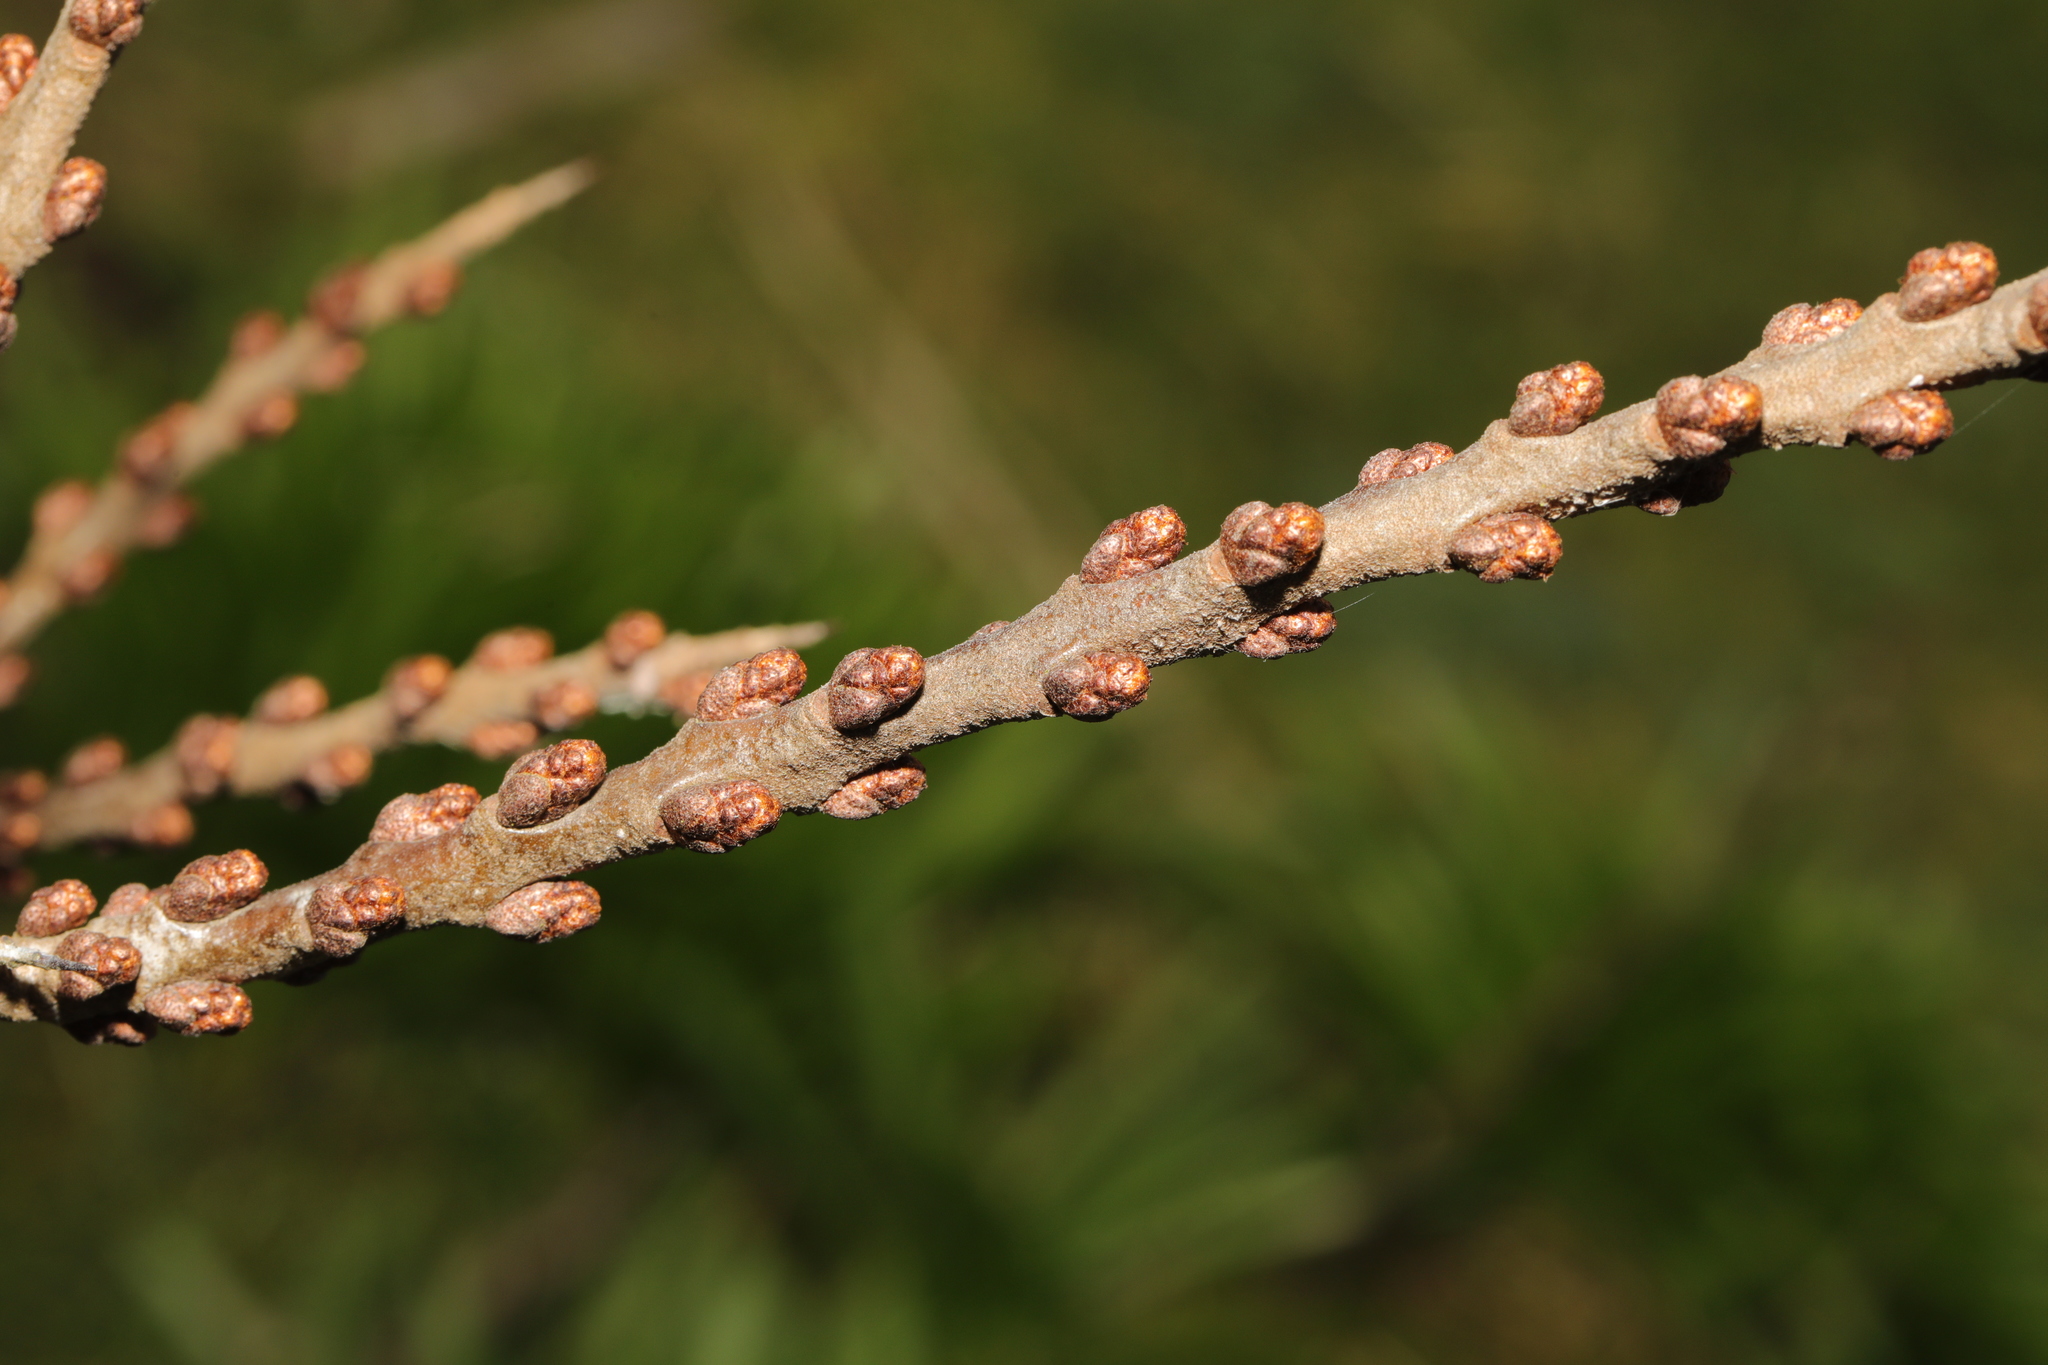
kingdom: Plantae
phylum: Tracheophyta
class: Magnoliopsida
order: Rosales
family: Elaeagnaceae
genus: Hippophae
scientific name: Hippophae rhamnoides
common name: Sea-buckthorn
